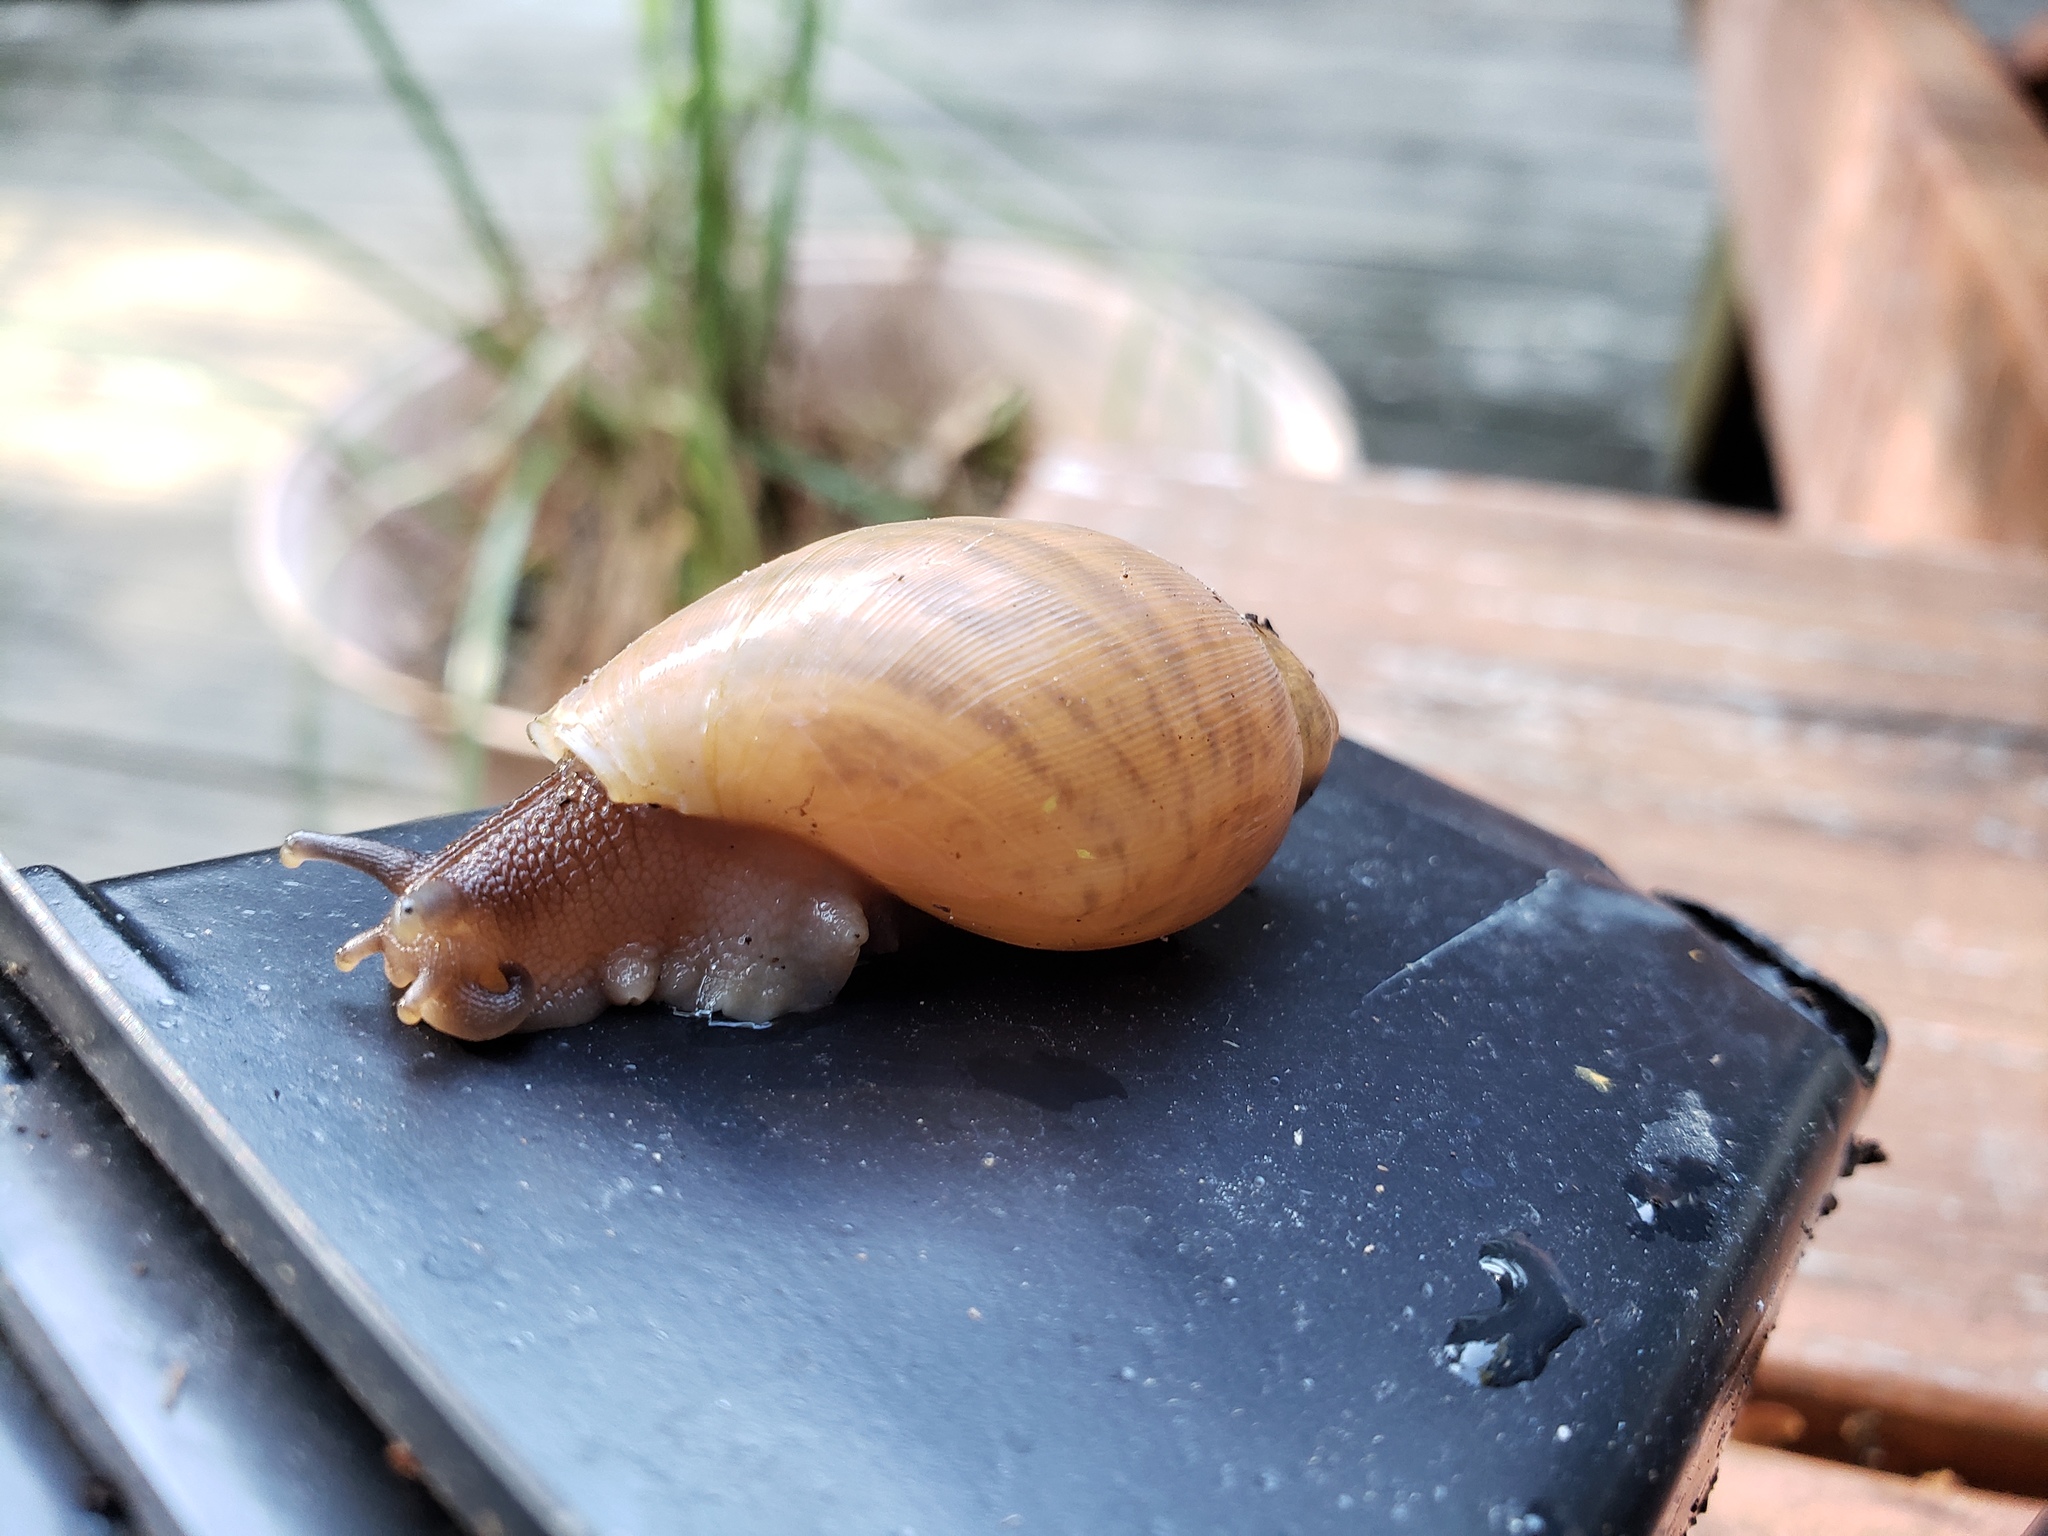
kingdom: Animalia
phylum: Mollusca
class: Gastropoda
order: Stylommatophora
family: Spiraxidae
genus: Euglandina
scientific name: Euglandina rosea
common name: Rosy wolfsnail
